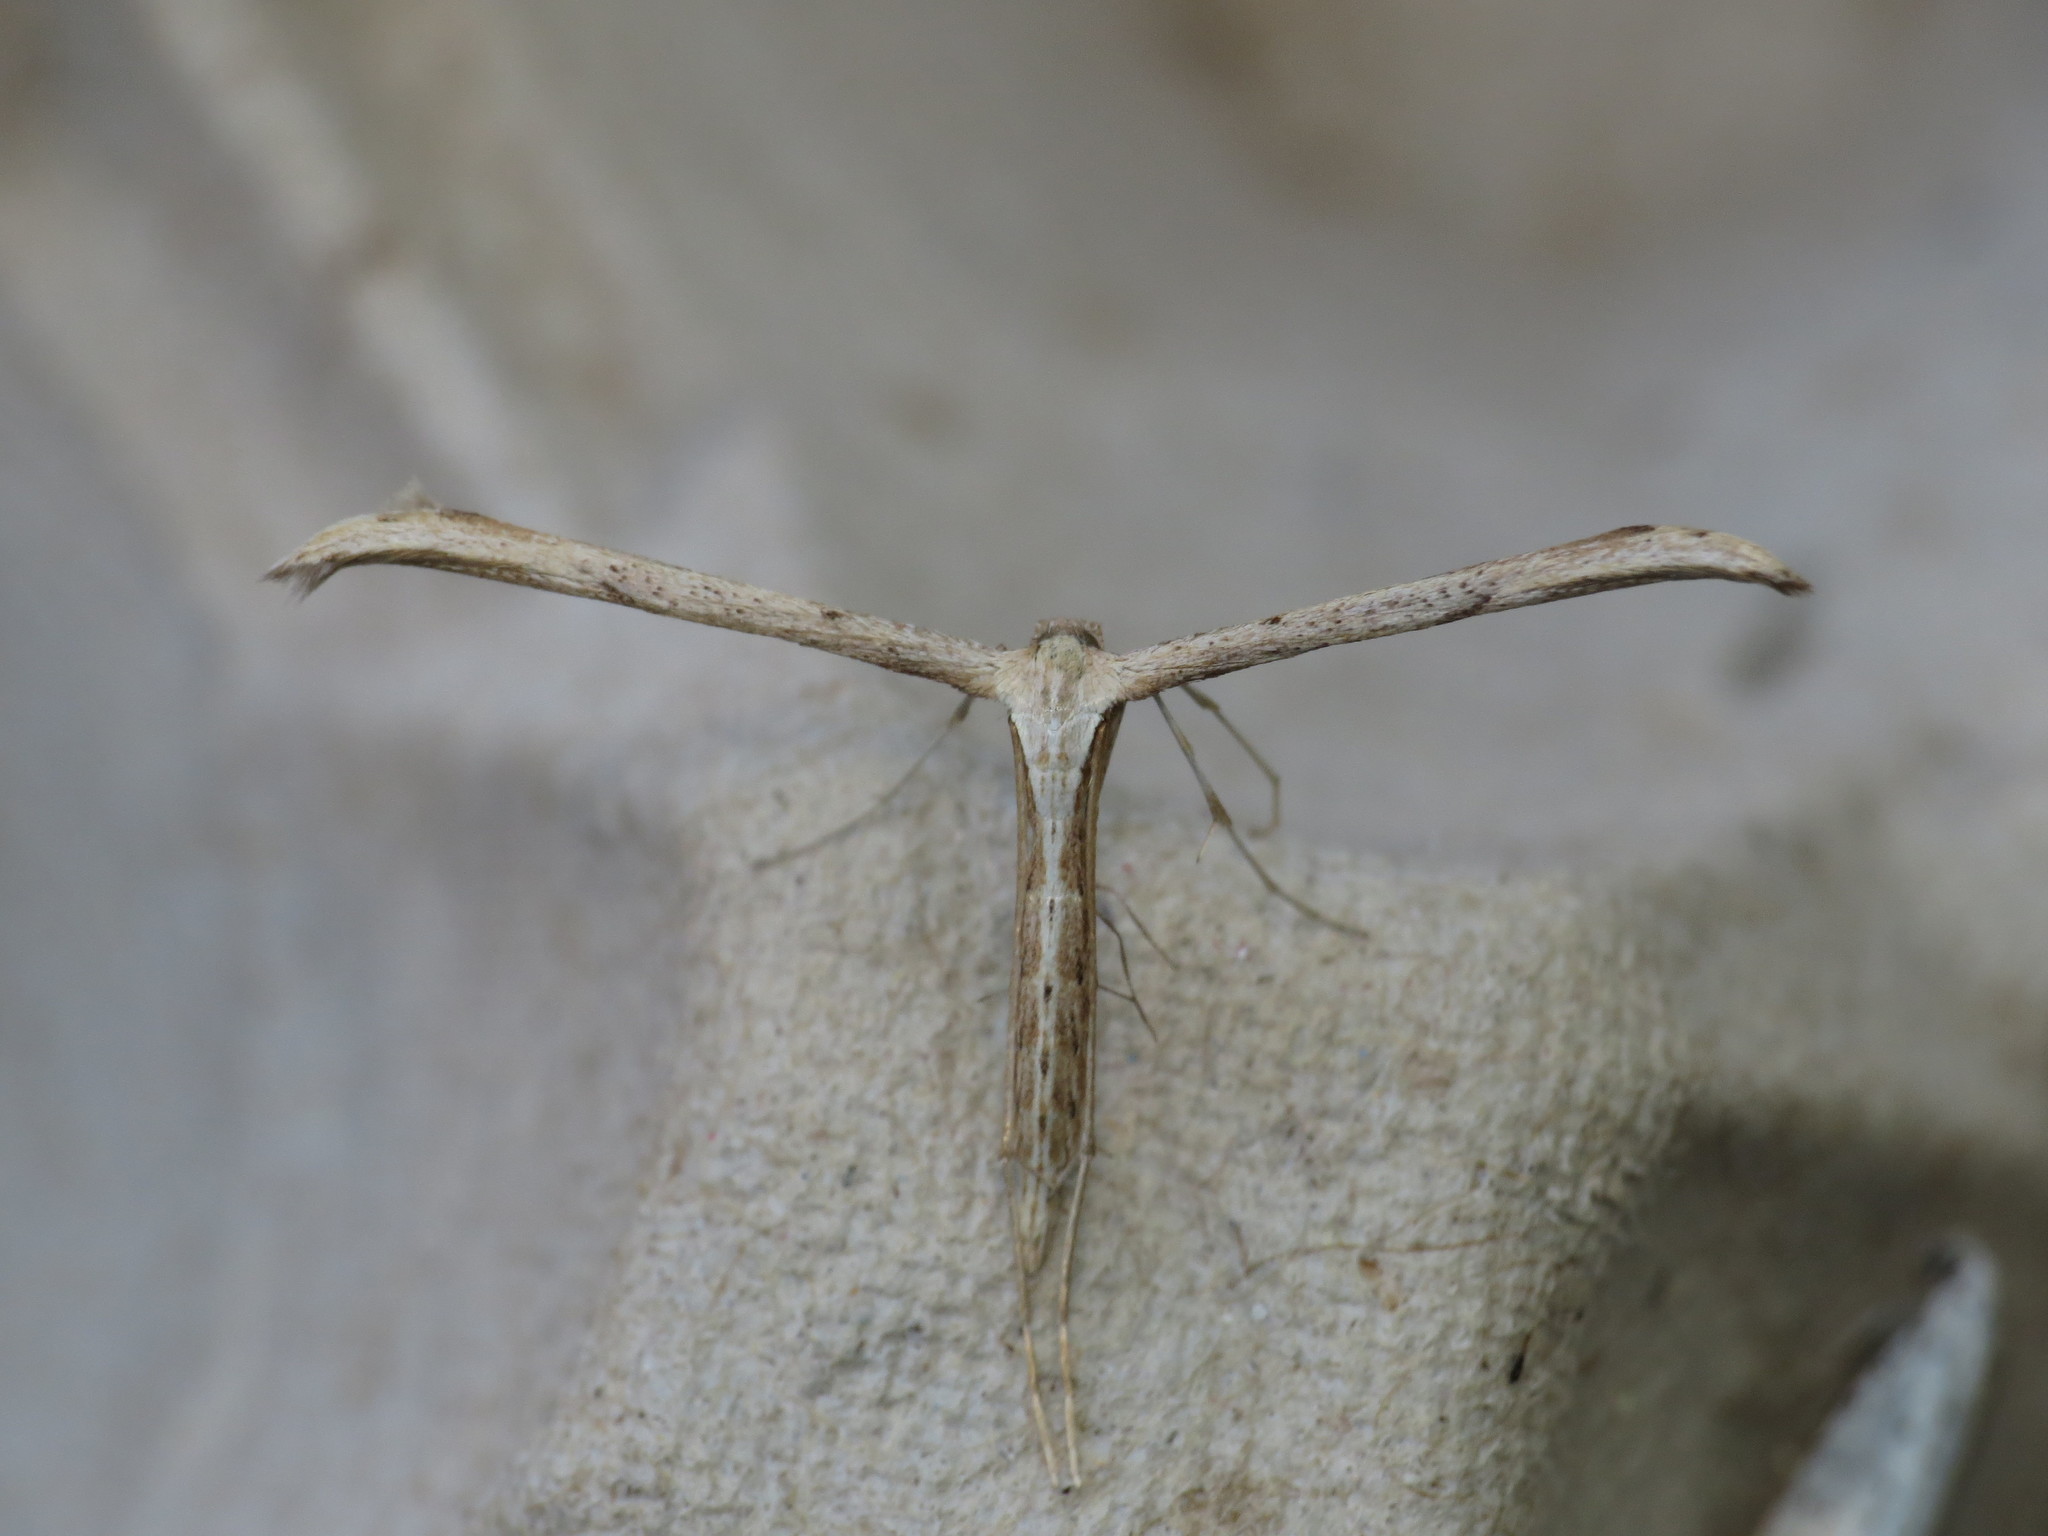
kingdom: Animalia
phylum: Arthropoda
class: Insecta
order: Lepidoptera
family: Pterophoridae
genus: Emmelina
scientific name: Emmelina monodactyla
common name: Common plume
